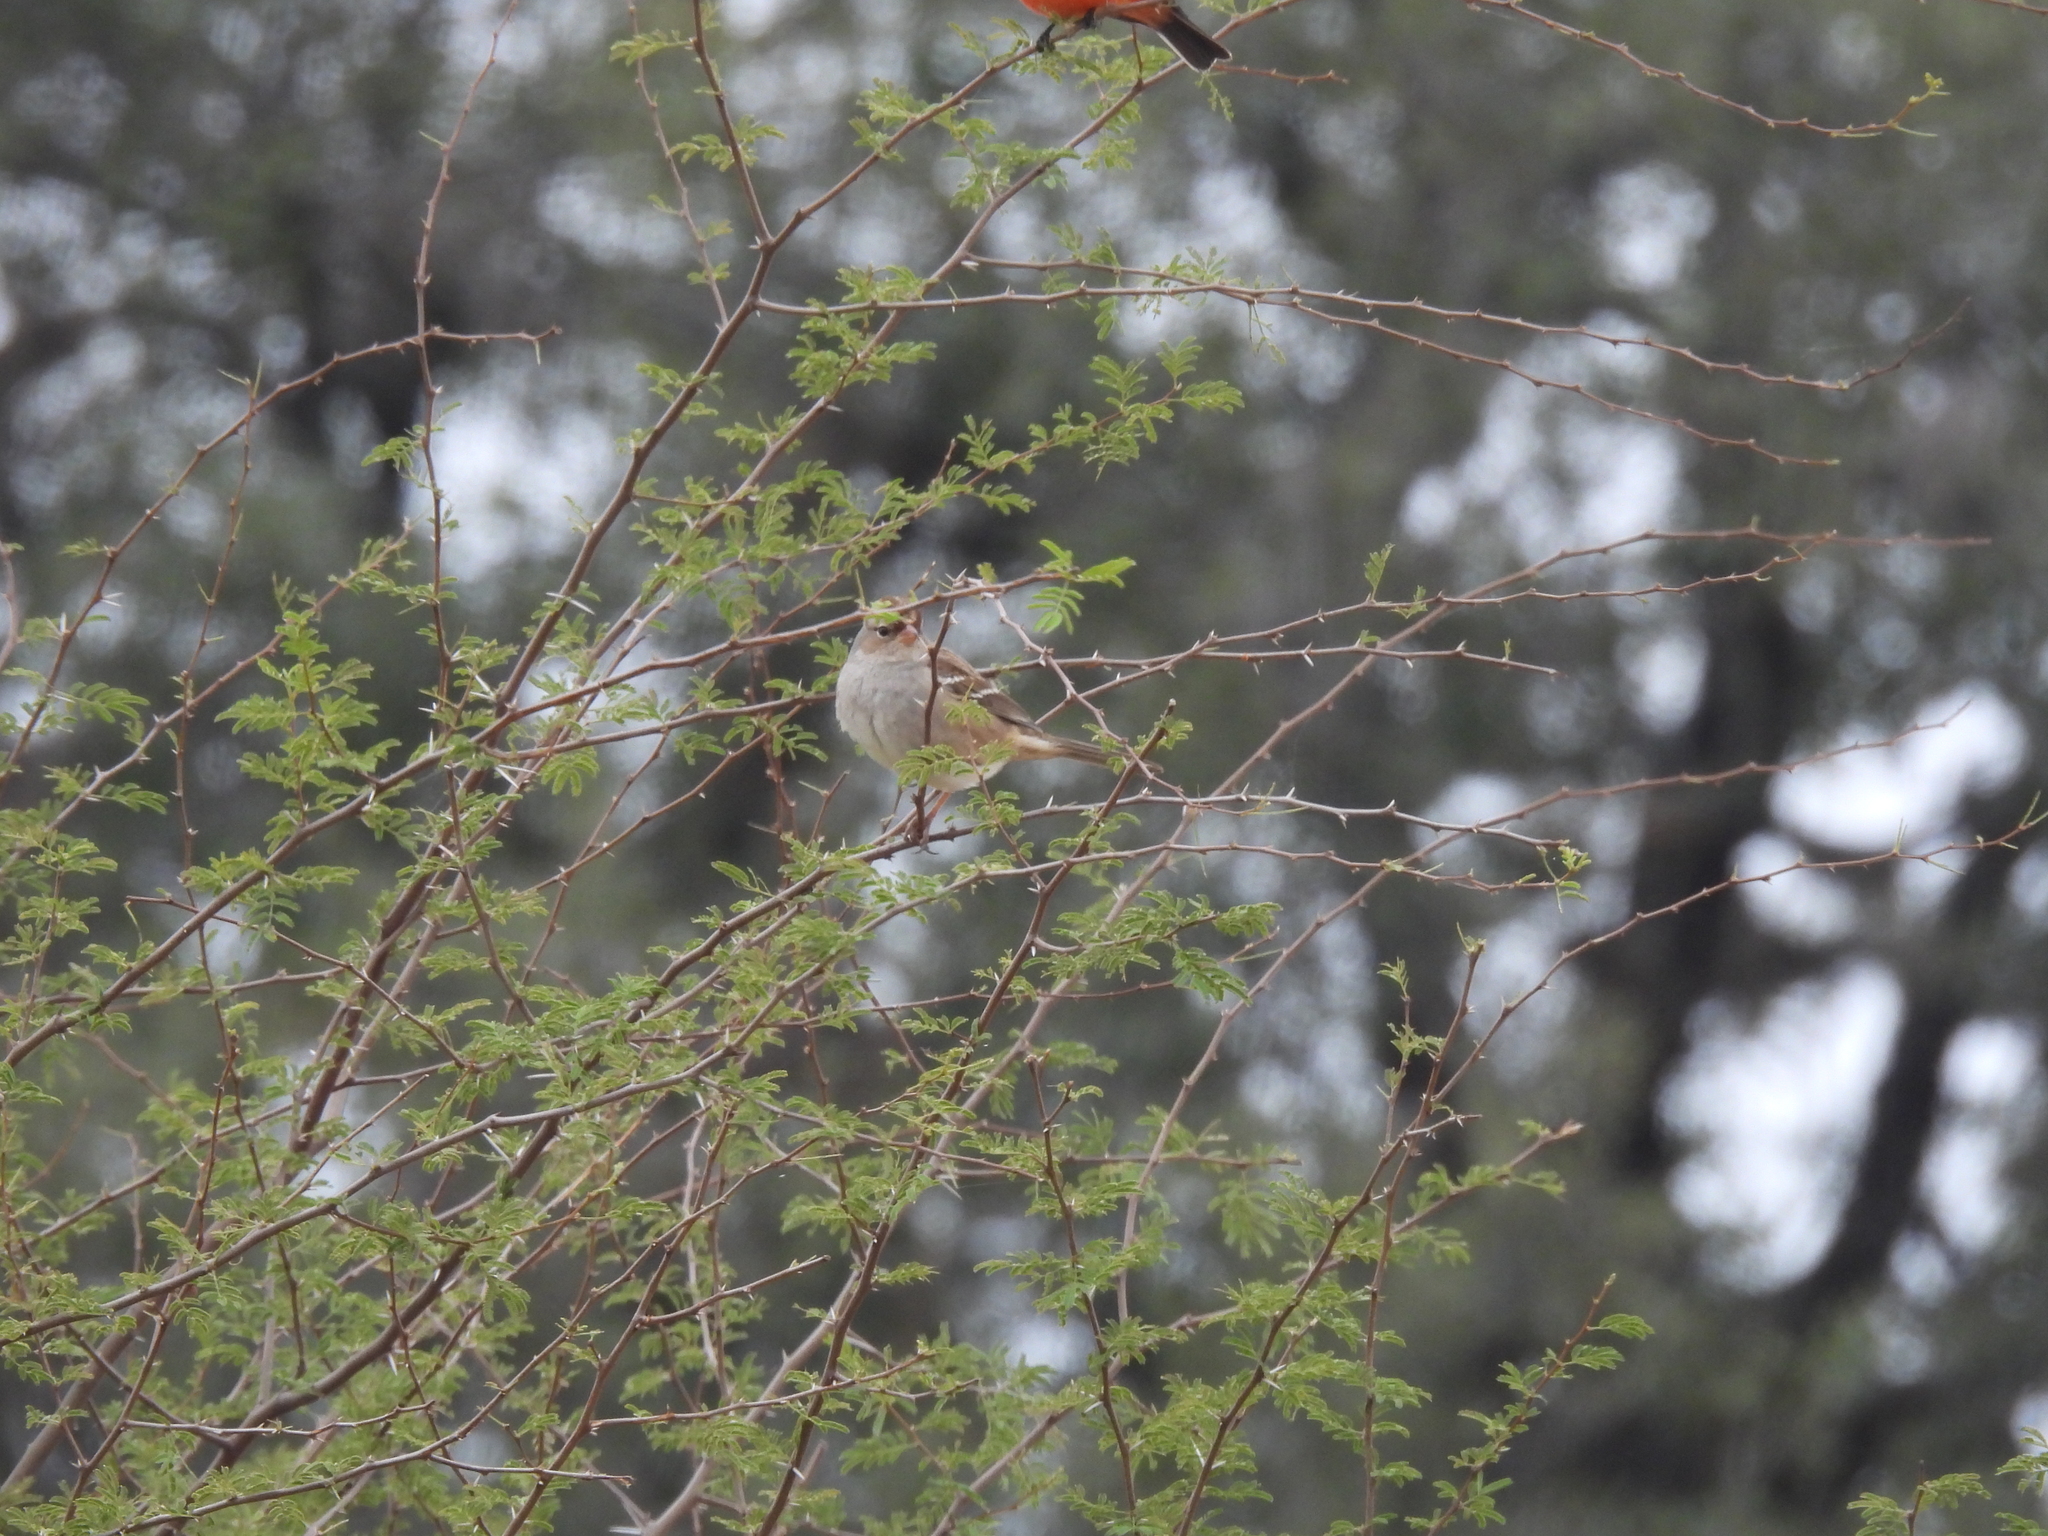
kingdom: Animalia
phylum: Chordata
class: Aves
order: Passeriformes
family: Passerellidae
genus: Zonotrichia
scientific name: Zonotrichia leucophrys
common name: White-crowned sparrow
